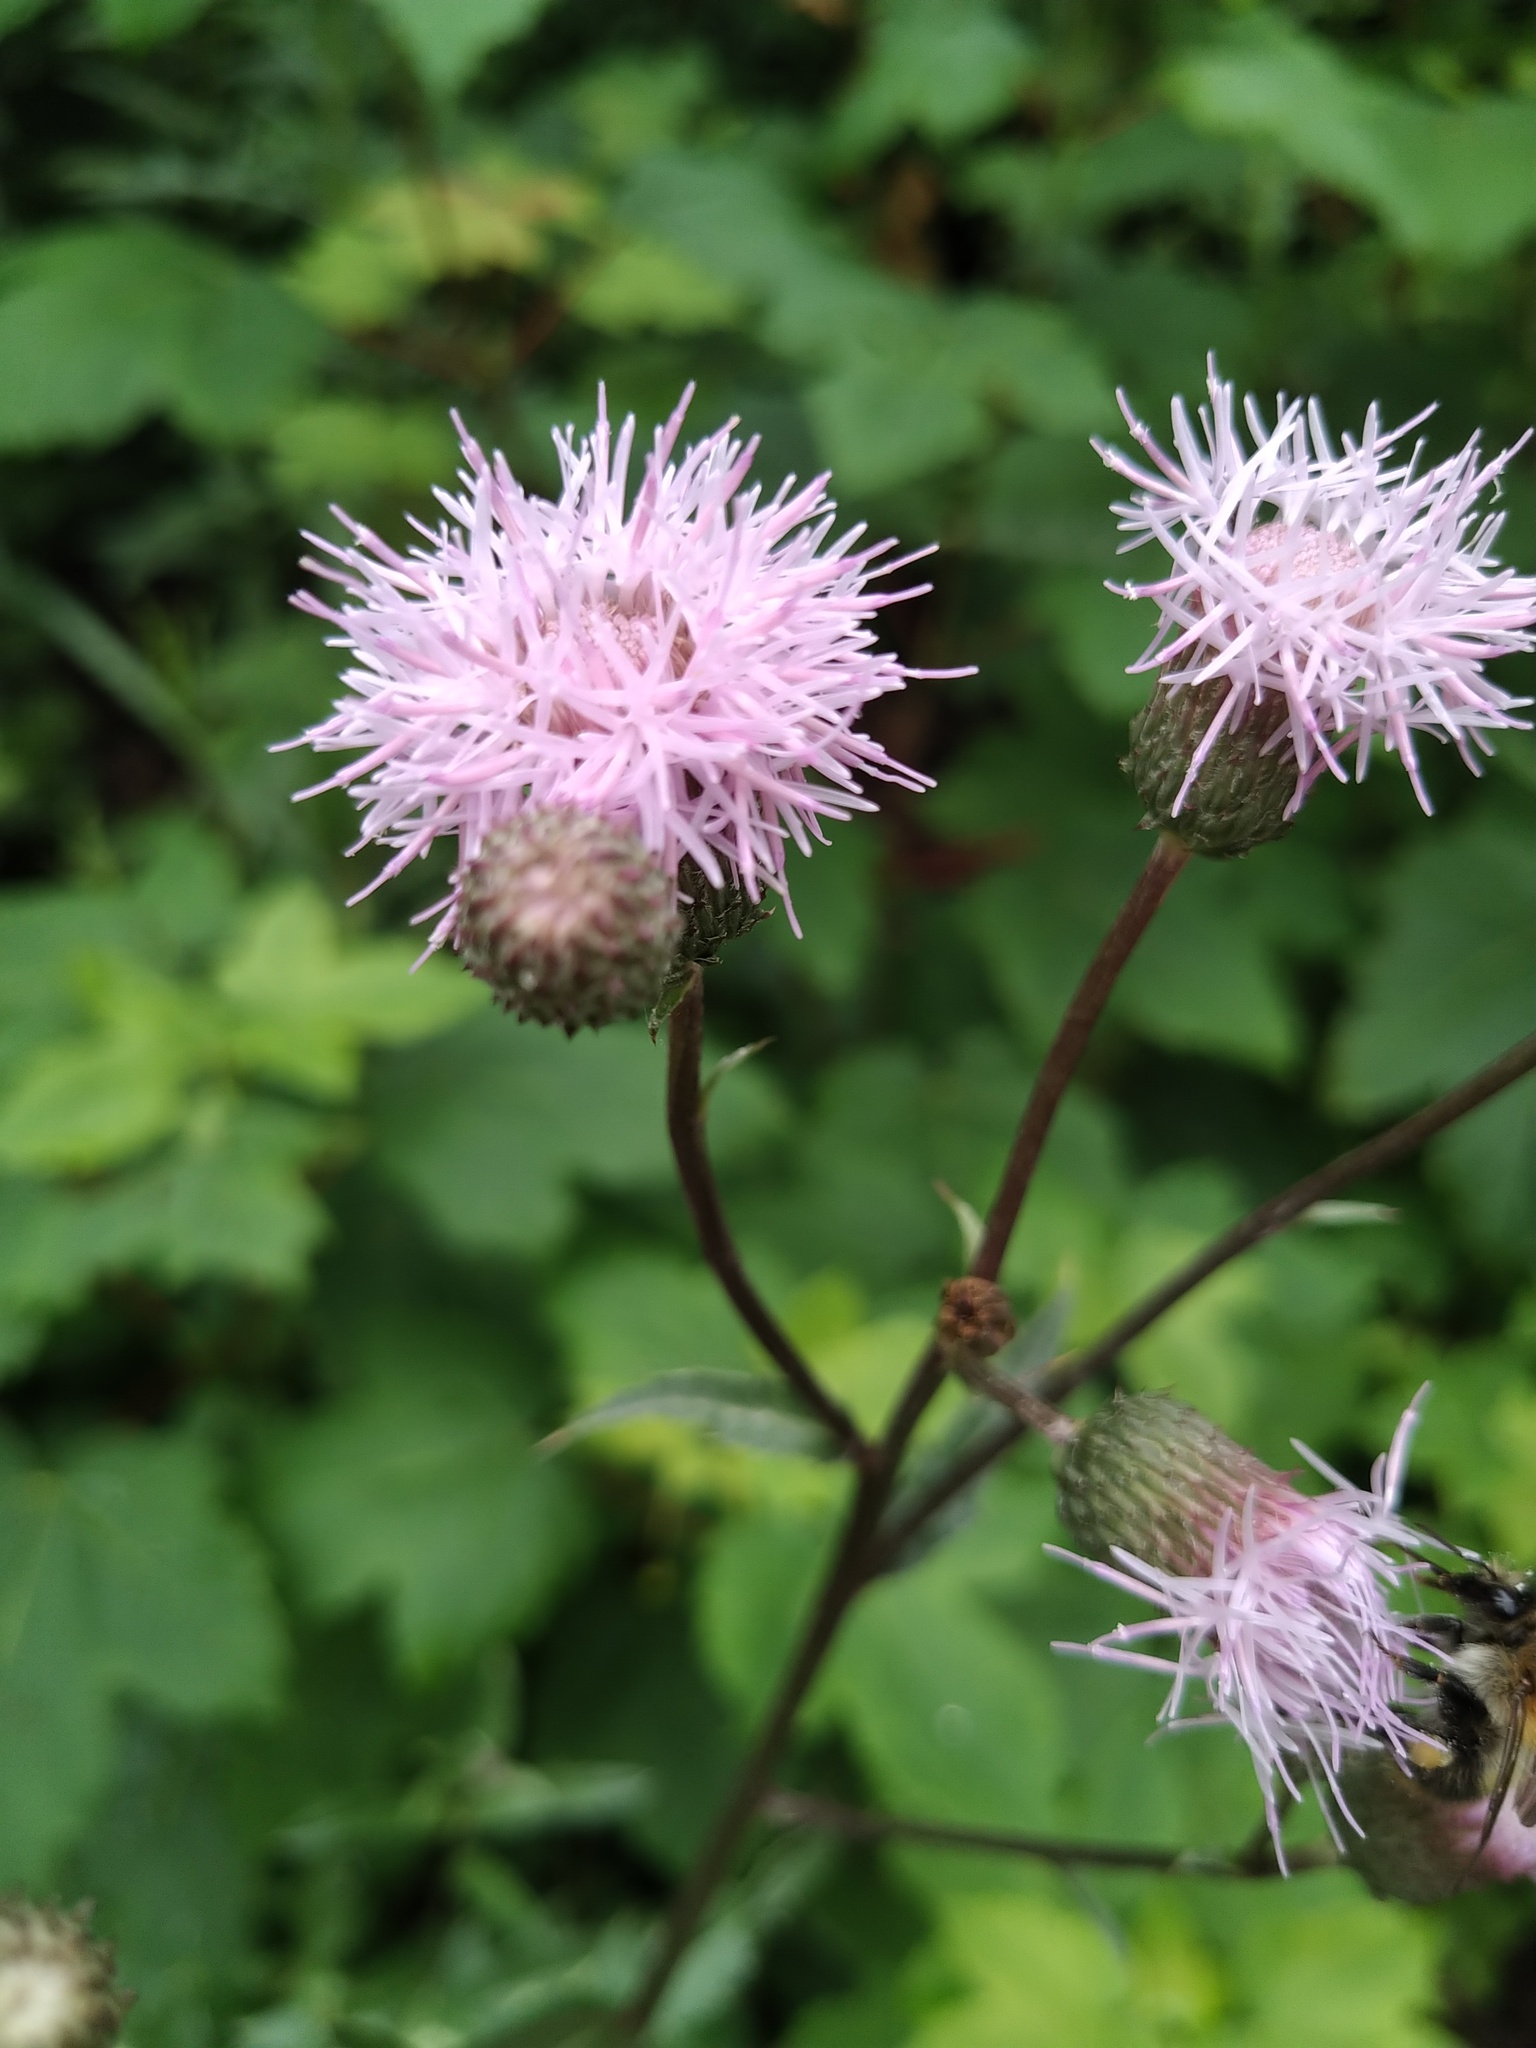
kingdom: Plantae
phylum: Tracheophyta
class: Magnoliopsida
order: Asterales
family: Asteraceae
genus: Cirsium
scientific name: Cirsium arvense
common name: Creeping thistle
